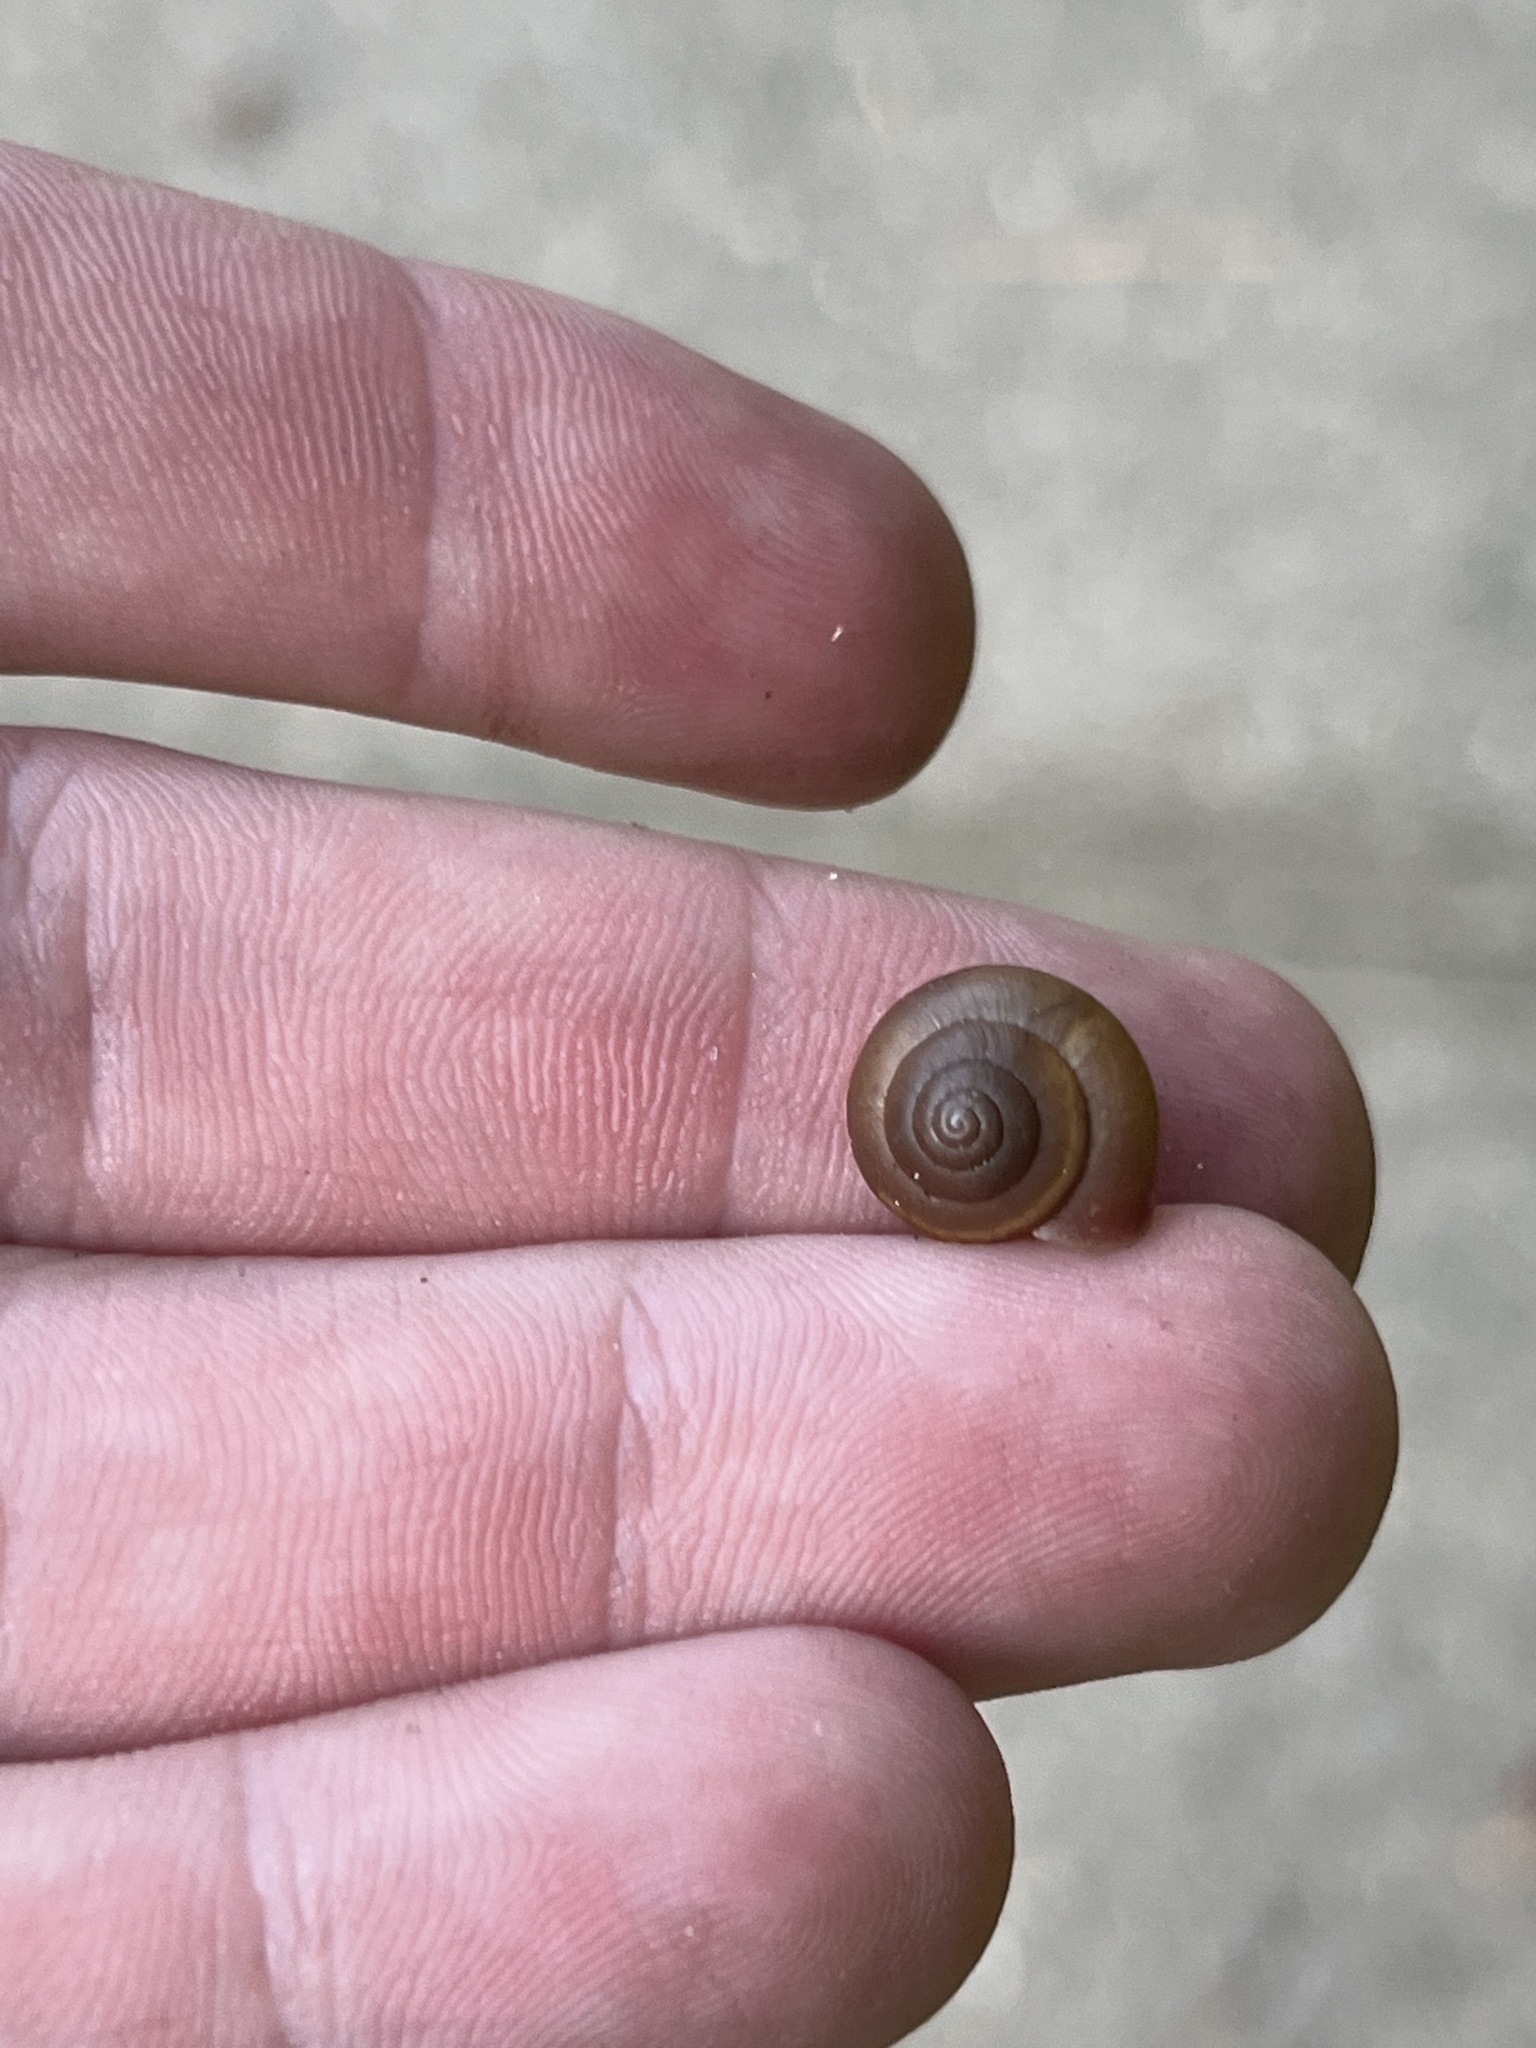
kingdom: Animalia
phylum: Mollusca
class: Gastropoda
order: Stylommatophora
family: Camaenidae
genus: Bradybaena
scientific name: Bradybaena similaris
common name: Asian trampsnail
